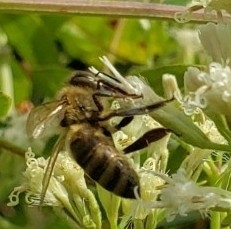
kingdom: Animalia
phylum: Arthropoda
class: Insecta
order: Hymenoptera
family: Apidae
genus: Apis
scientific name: Apis mellifera
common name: Honey bee
